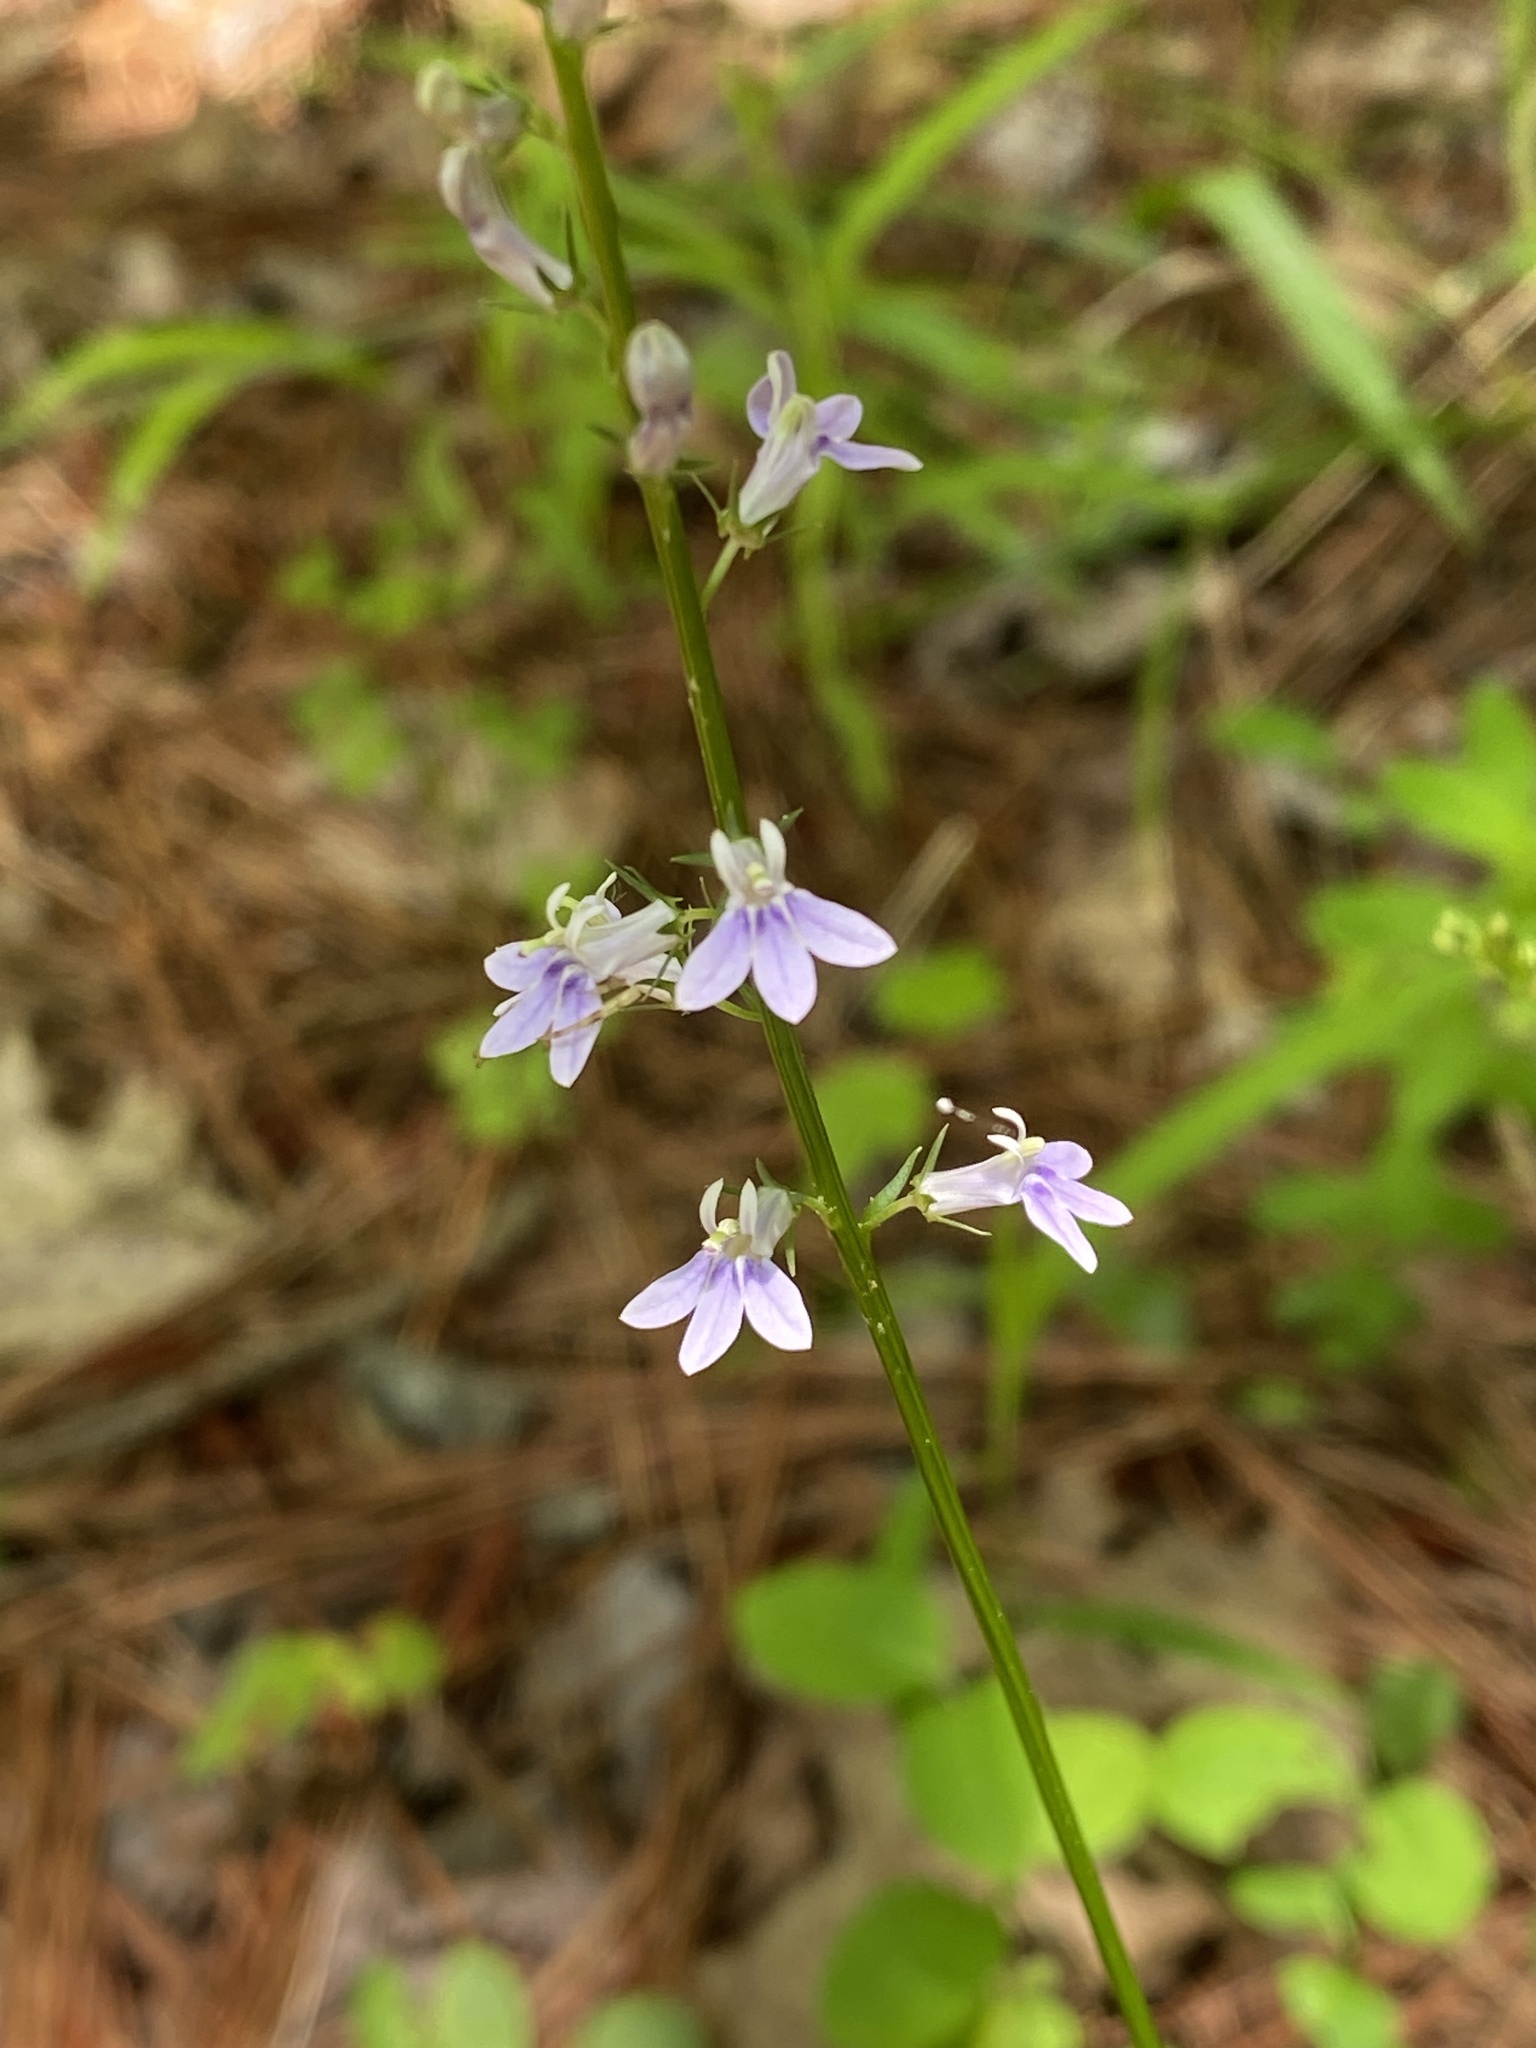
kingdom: Plantae
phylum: Tracheophyta
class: Magnoliopsida
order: Asterales
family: Campanulaceae
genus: Lobelia
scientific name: Lobelia spicata
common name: Pale-spike lobelia
